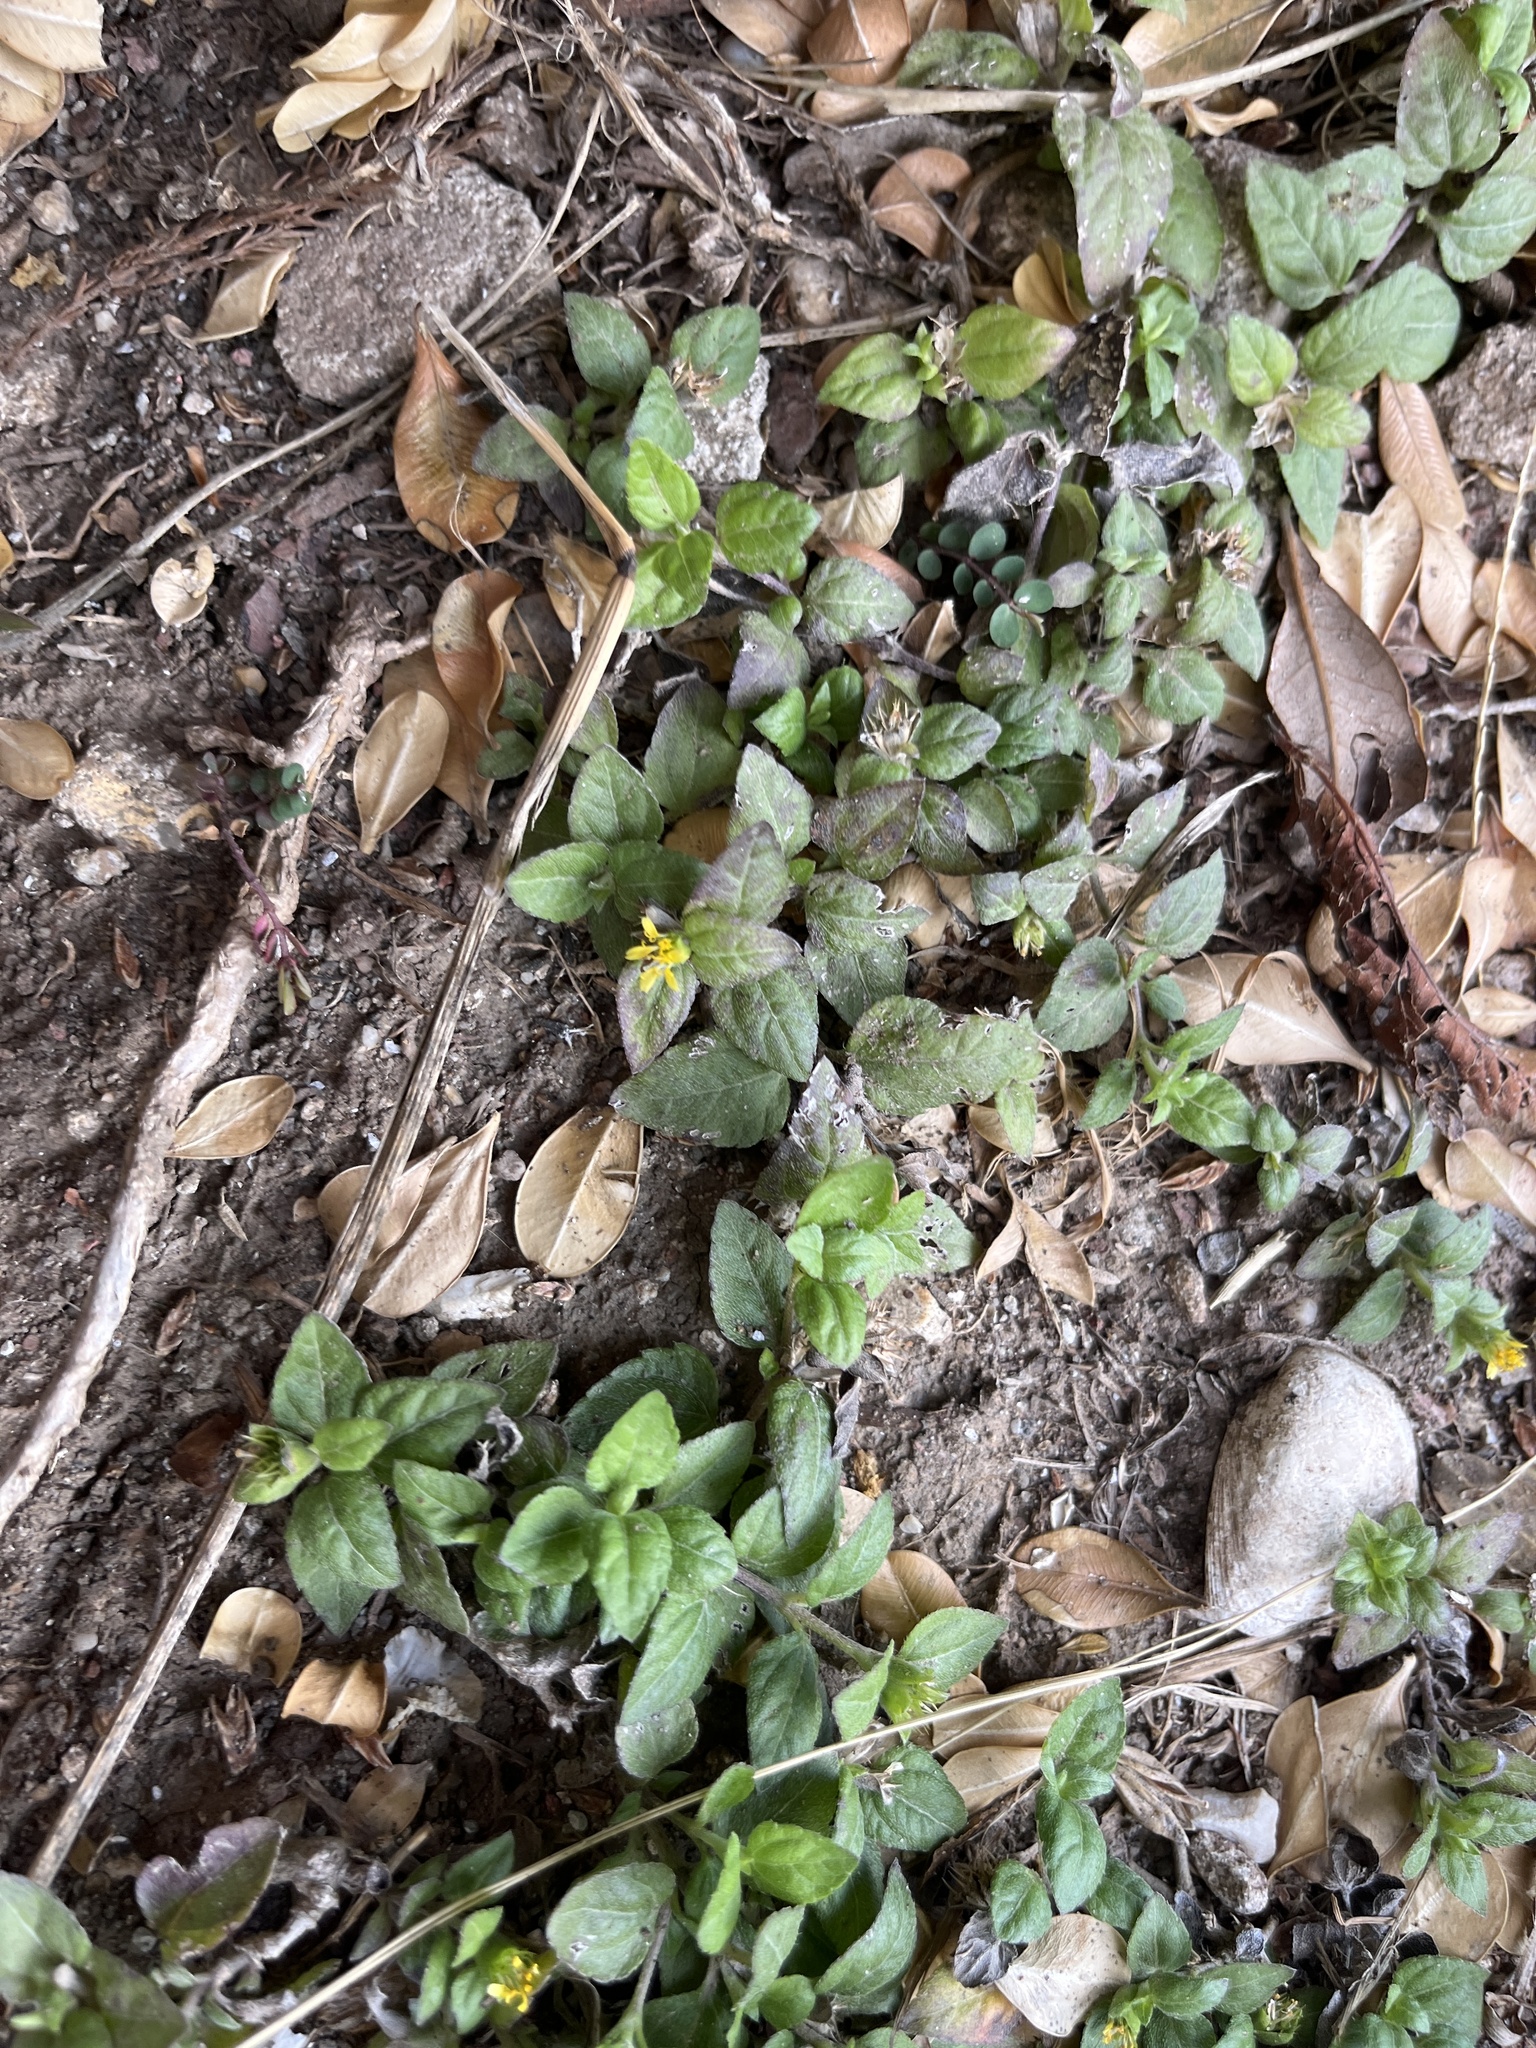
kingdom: Plantae
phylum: Tracheophyta
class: Magnoliopsida
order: Asterales
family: Asteraceae
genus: Calyptocarpus
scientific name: Calyptocarpus vialis
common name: Straggler daisy
